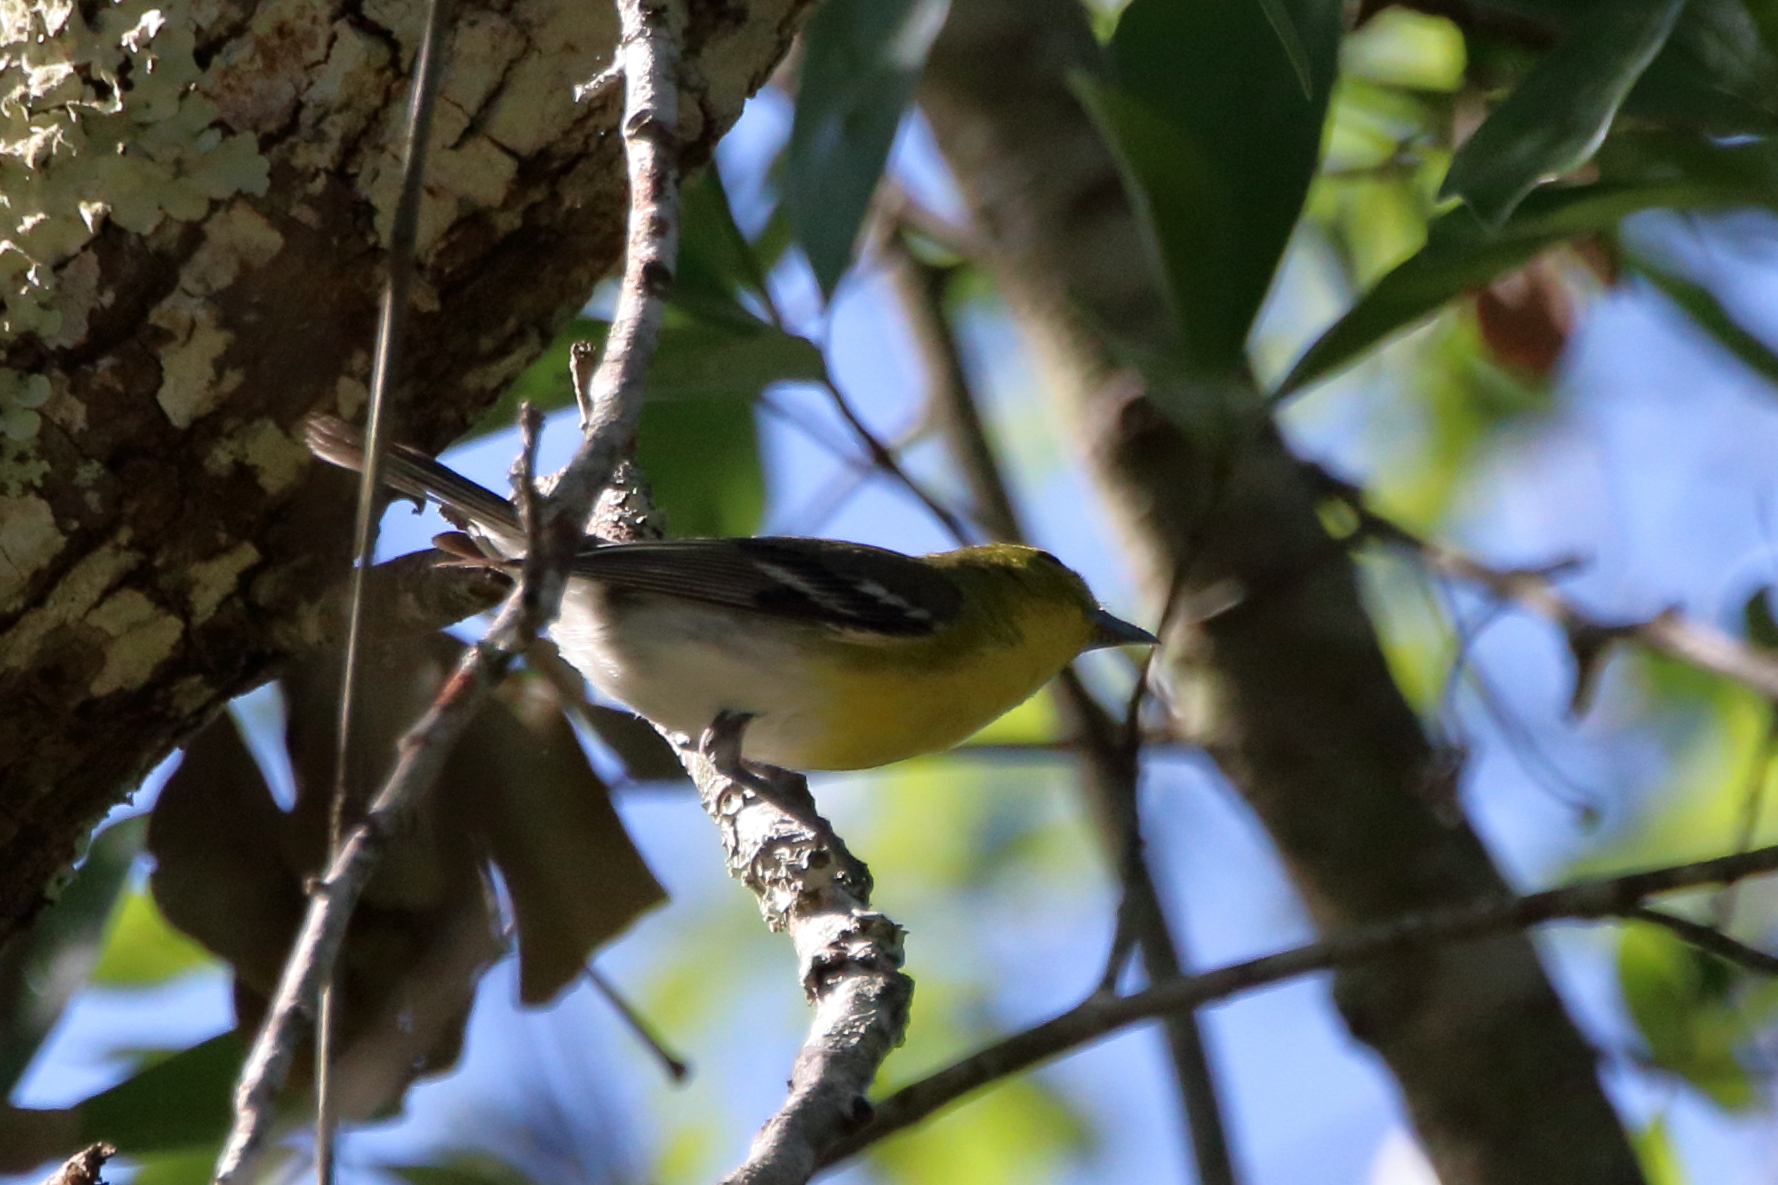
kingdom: Animalia
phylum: Chordata
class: Aves
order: Passeriformes
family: Vireonidae
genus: Vireo
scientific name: Vireo flavifrons
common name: Yellow-throated vireo
